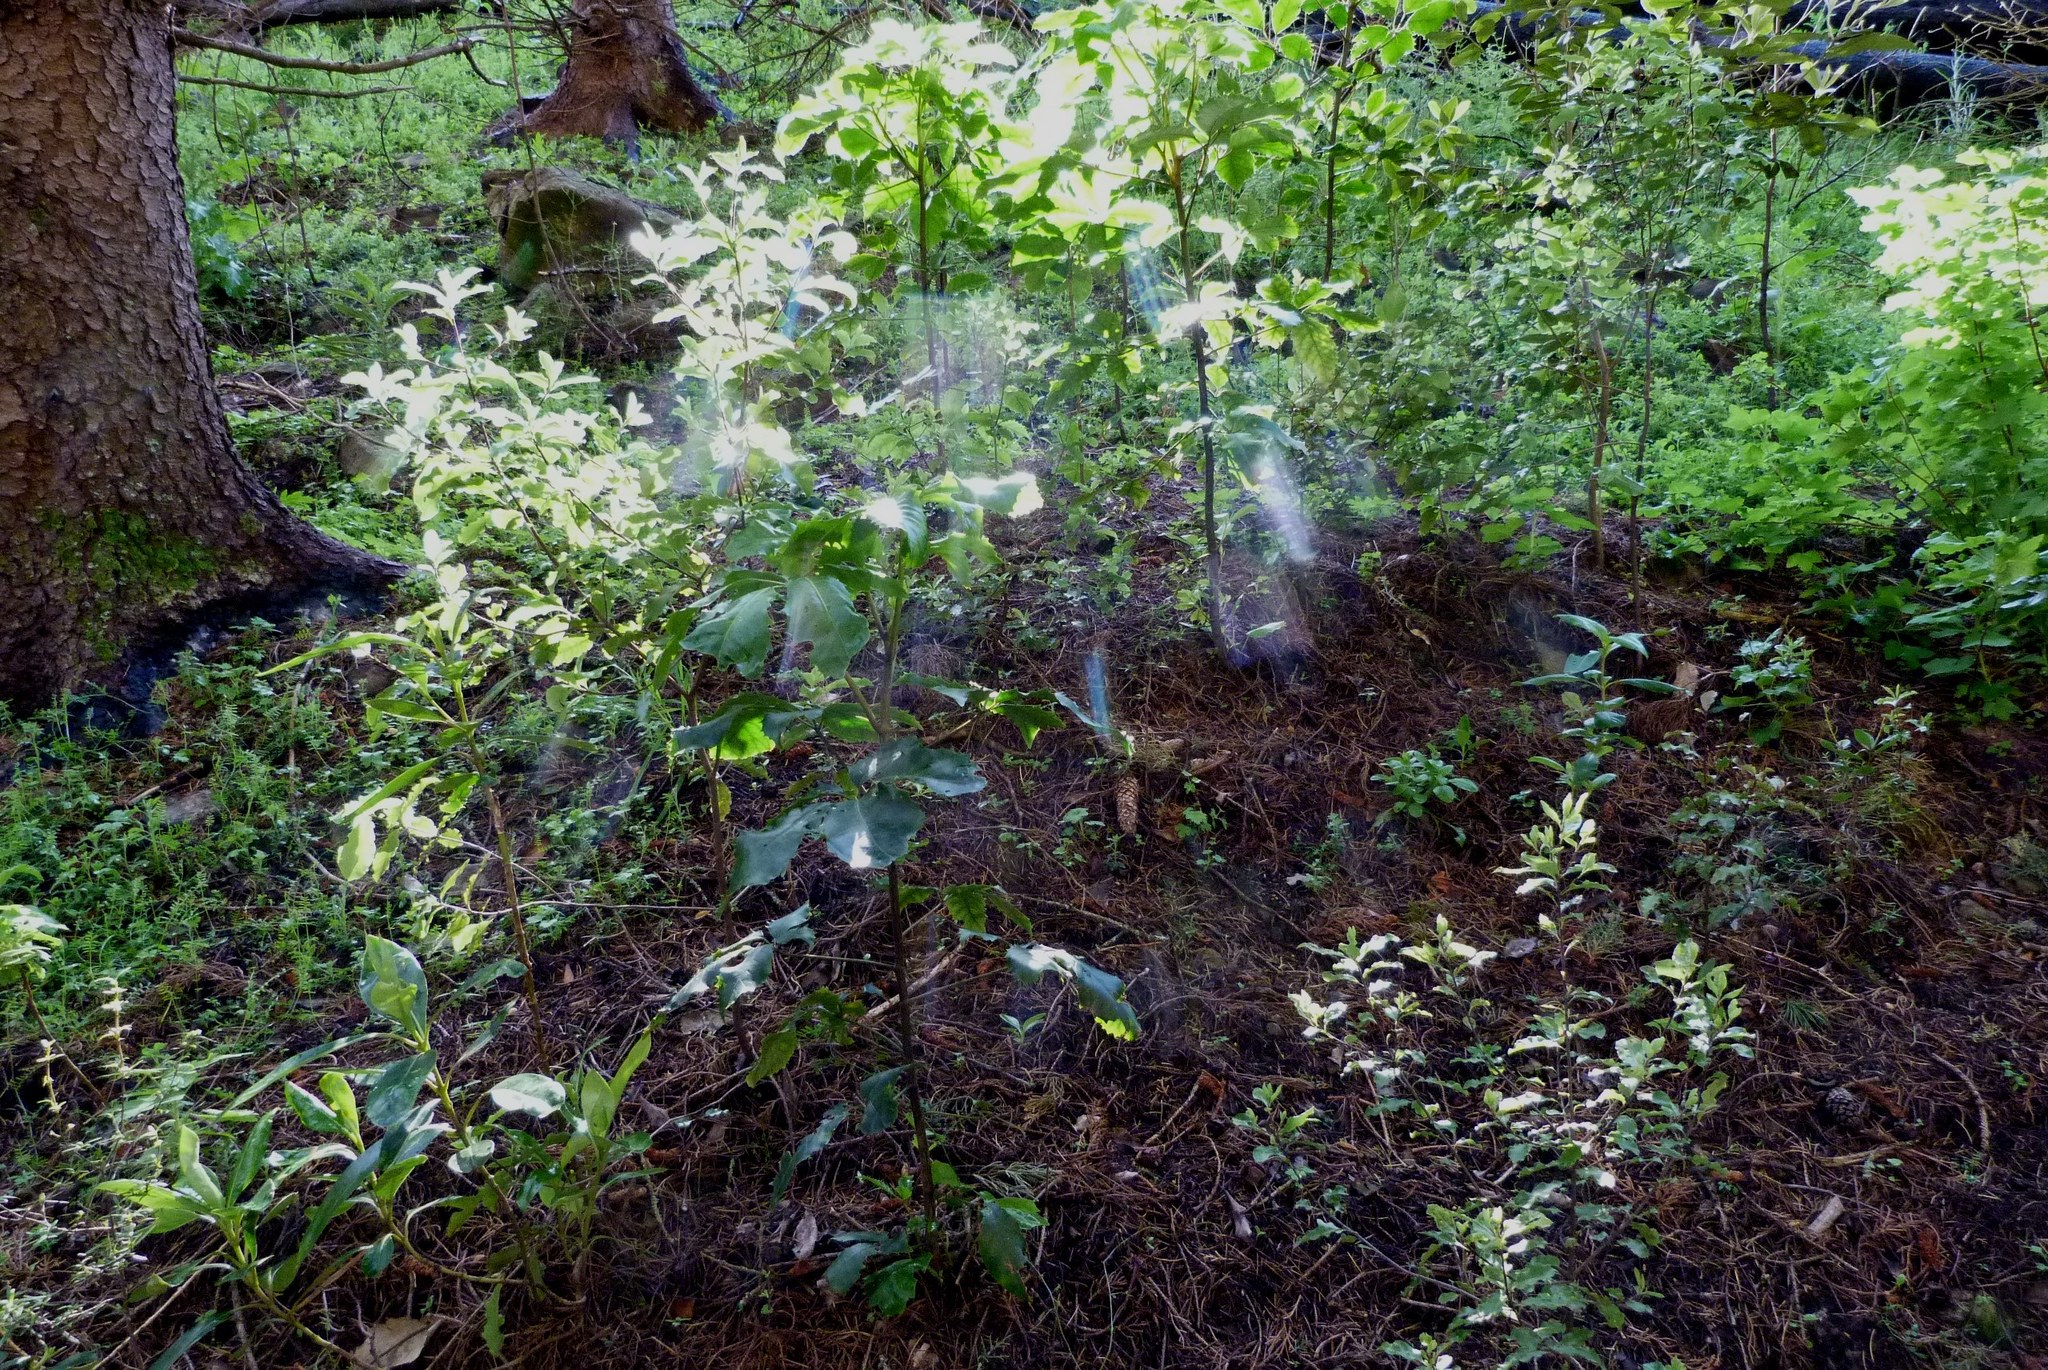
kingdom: Plantae
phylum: Tracheophyta
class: Magnoliopsida
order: Apiales
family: Araliaceae
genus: Neopanax
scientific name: Neopanax arboreus
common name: Five-fingers
